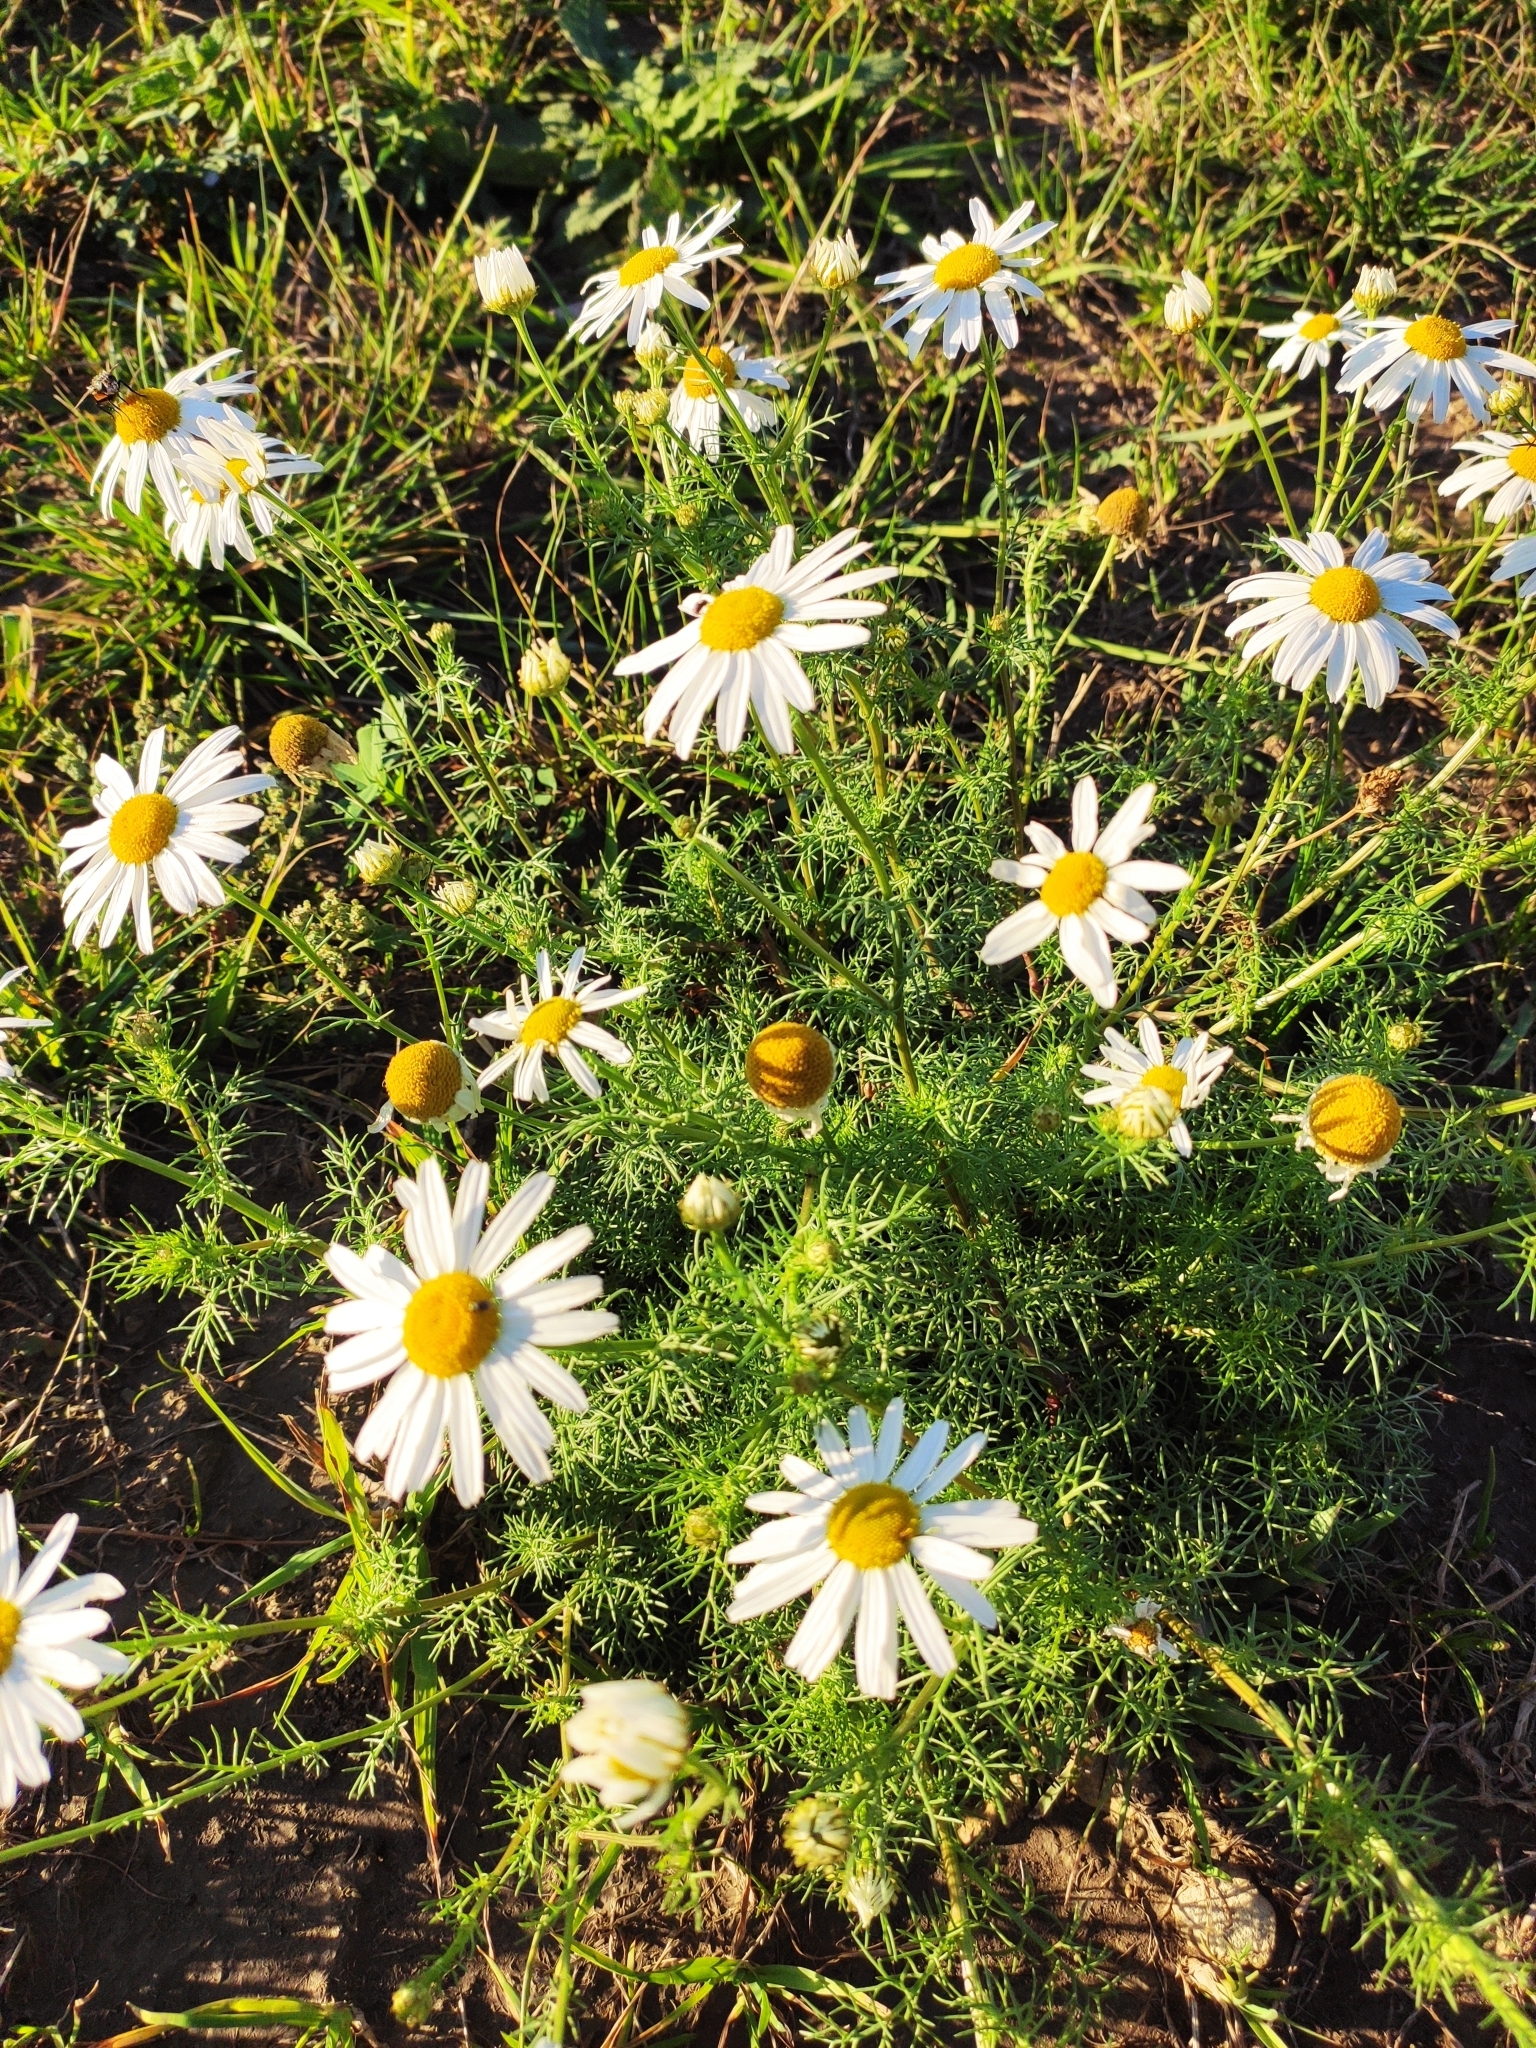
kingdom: Plantae
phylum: Tracheophyta
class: Magnoliopsida
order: Asterales
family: Asteraceae
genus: Tripleurospermum
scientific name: Tripleurospermum inodorum
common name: Scentless mayweed
